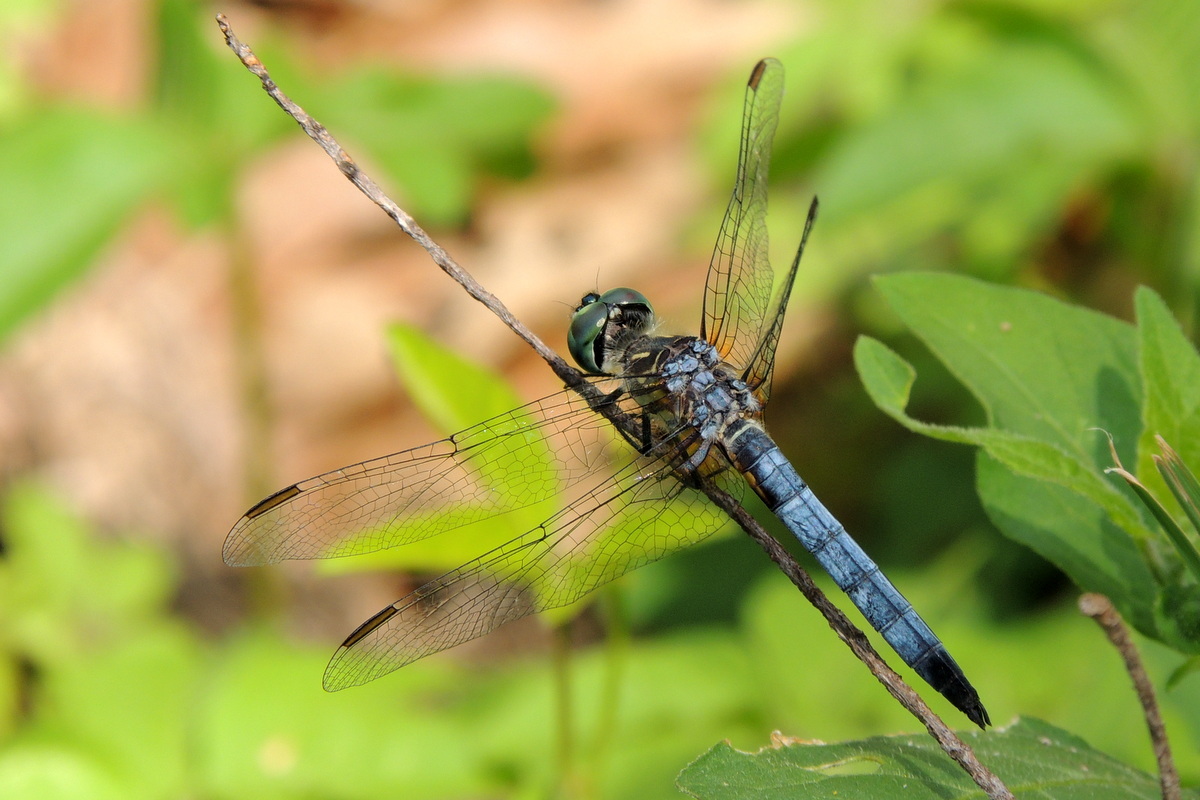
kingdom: Animalia
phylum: Arthropoda
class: Insecta
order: Odonata
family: Libellulidae
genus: Pachydiplax
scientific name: Pachydiplax longipennis
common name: Blue dasher
